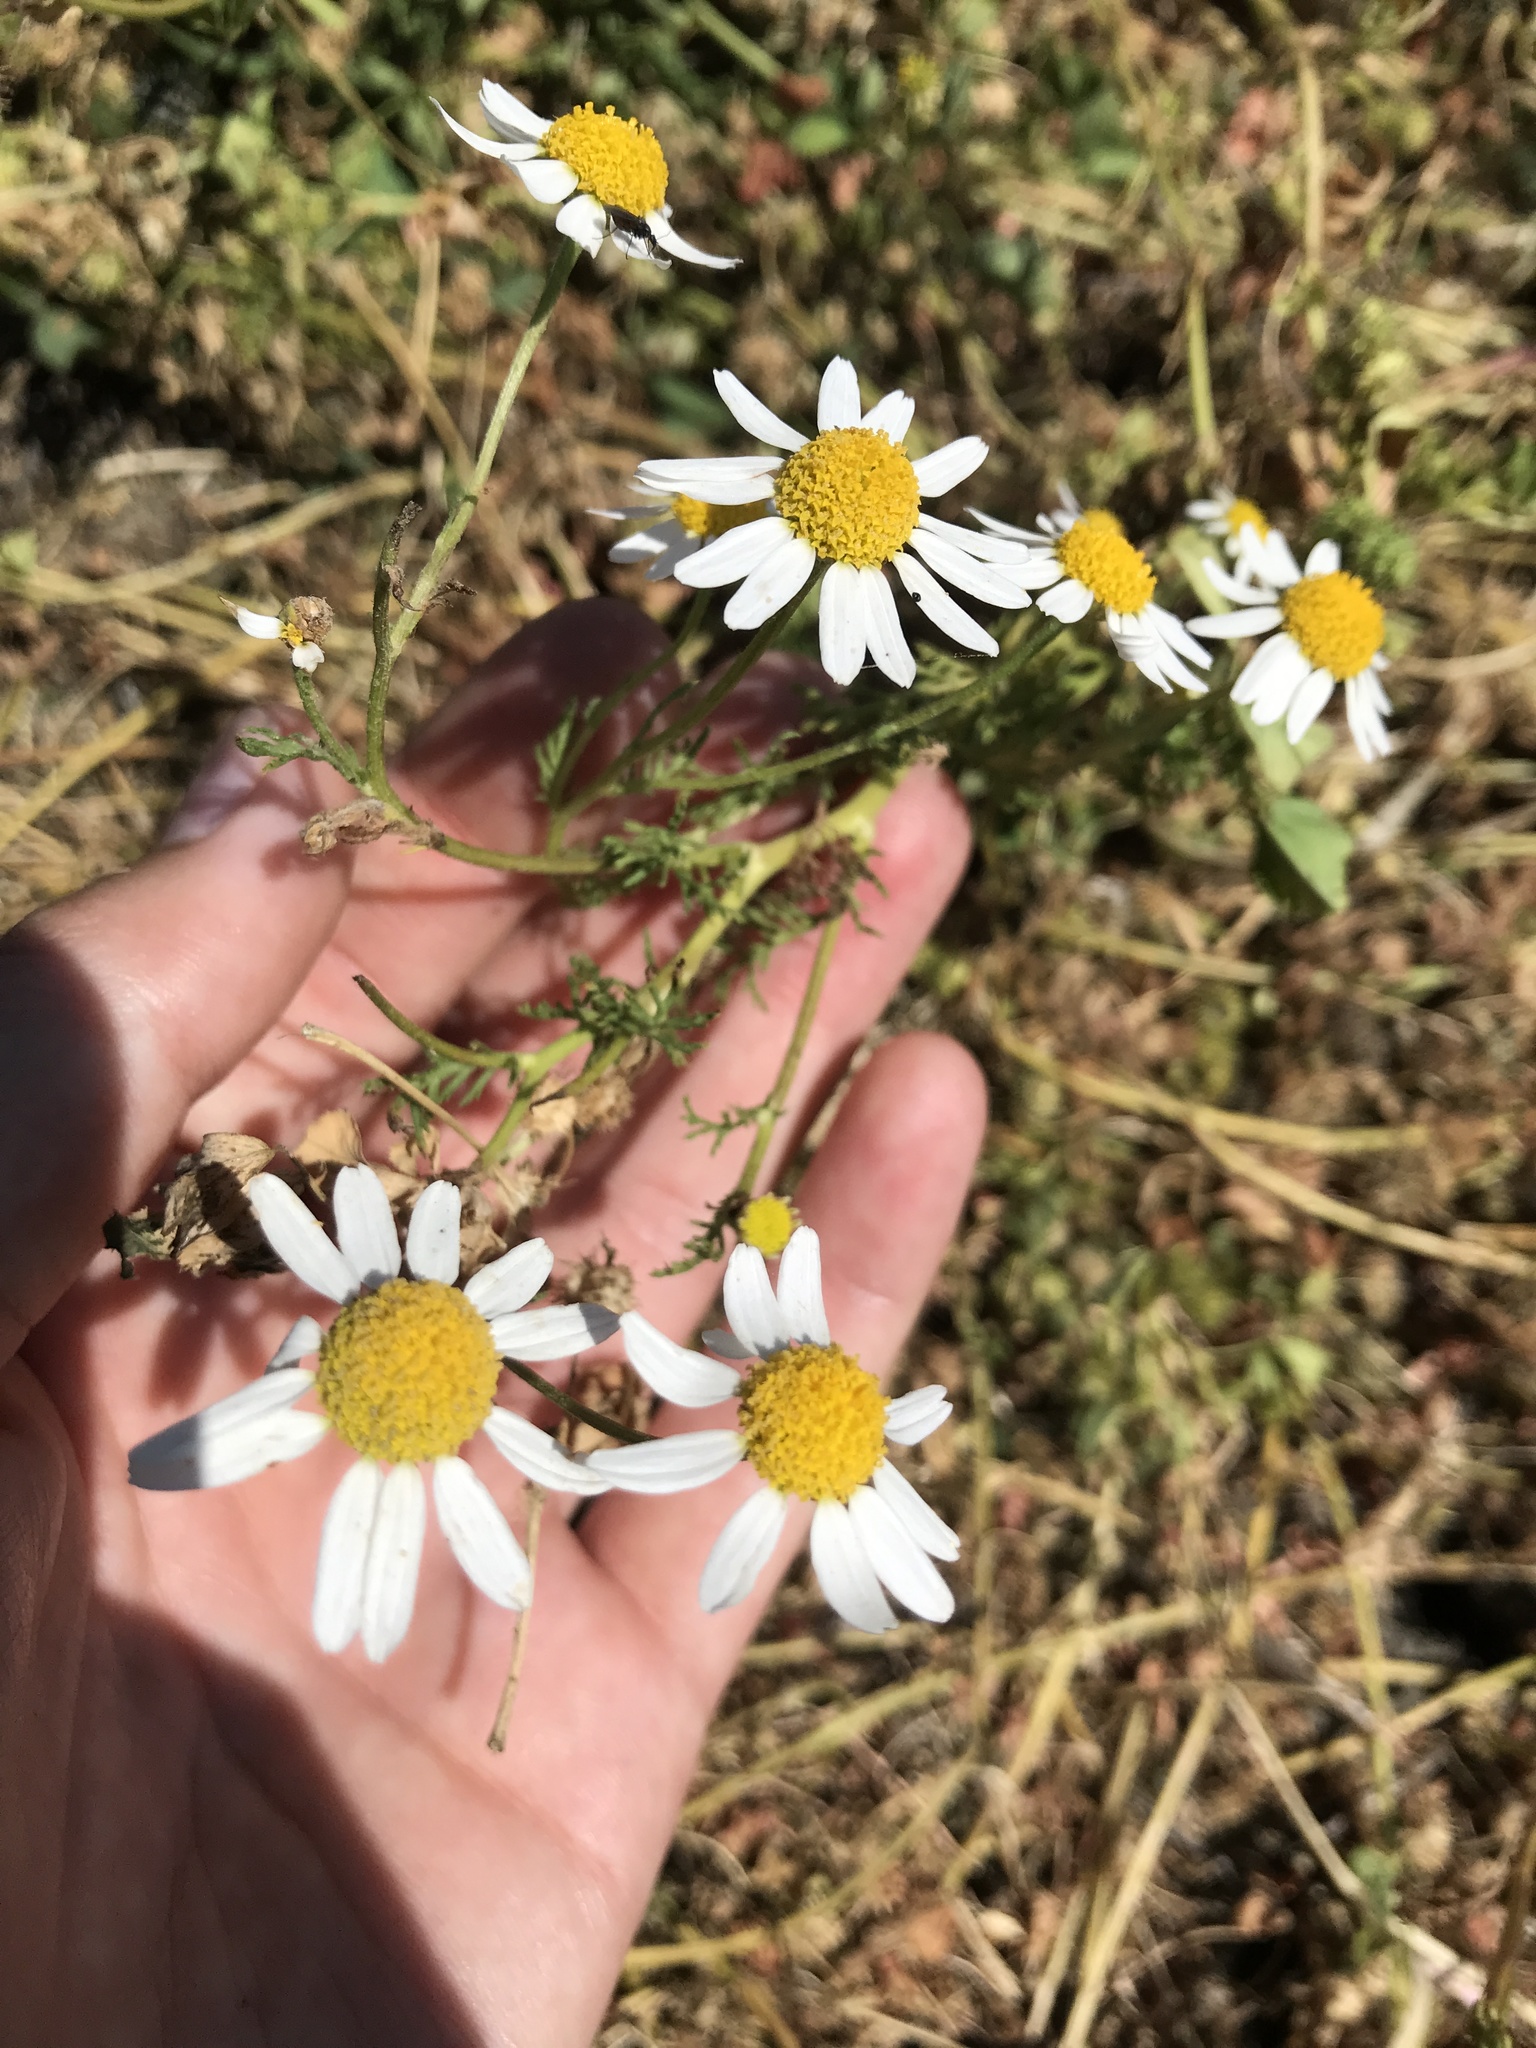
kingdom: Plantae
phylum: Tracheophyta
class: Magnoliopsida
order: Asterales
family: Asteraceae
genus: Anthemis
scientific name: Anthemis cotula
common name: Stinking chamomile
